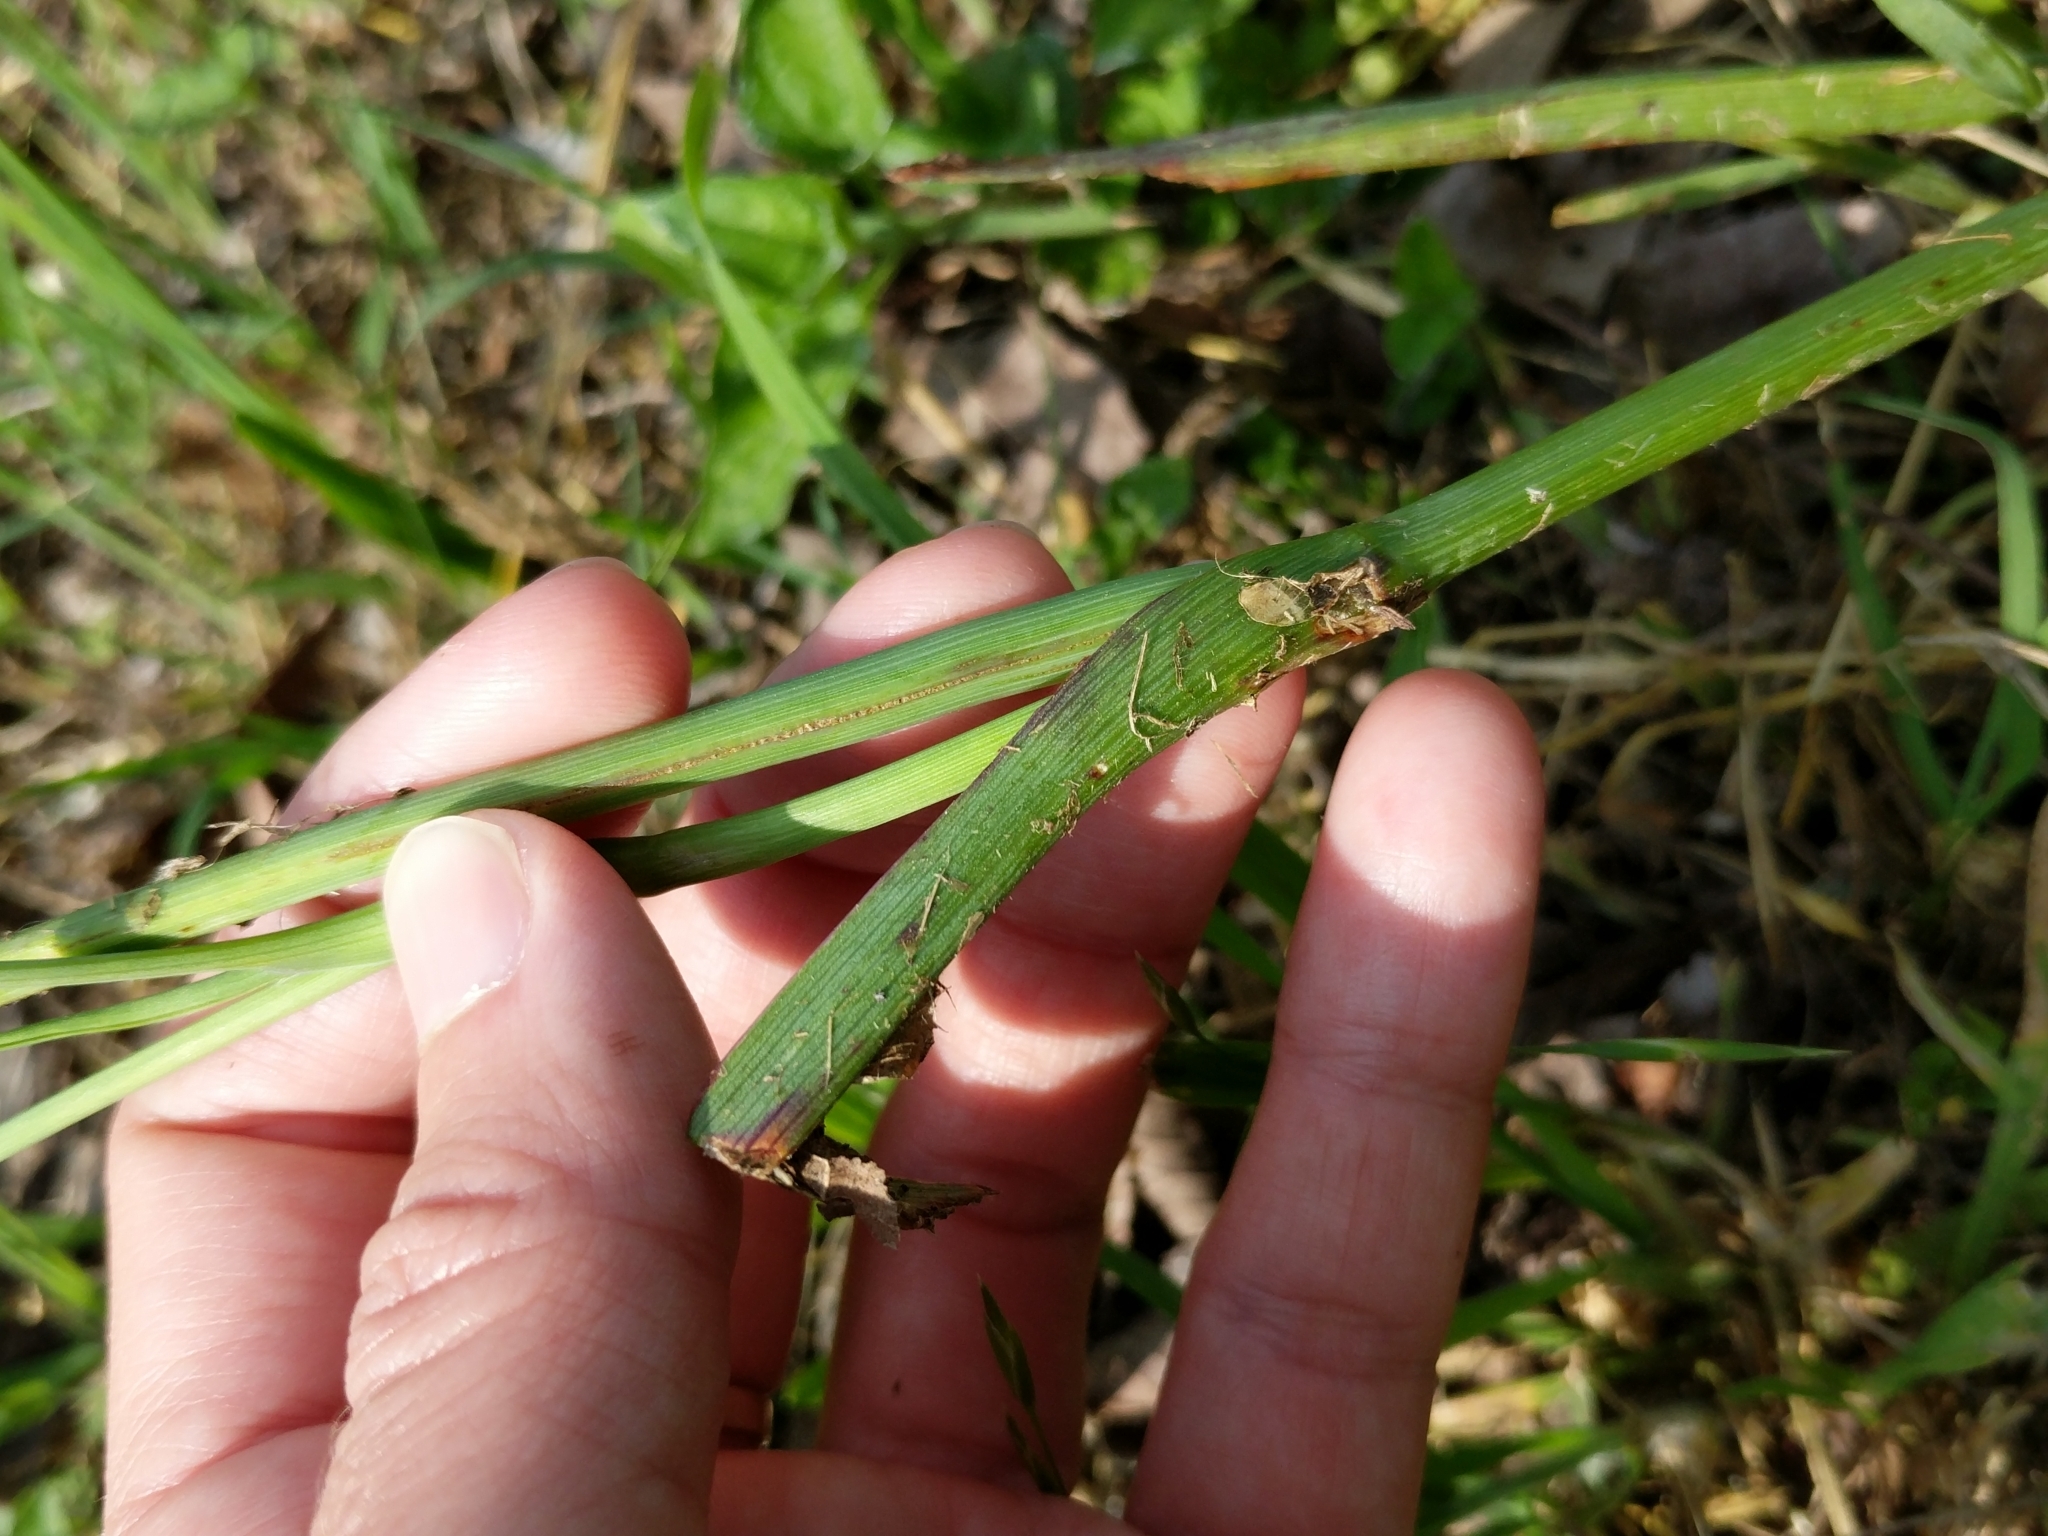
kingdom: Plantae
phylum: Tracheophyta
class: Liliopsida
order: Commelinales
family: Commelinaceae
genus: Tradescantia
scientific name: Tradescantia occidentalis
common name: Prairie spiderwort
